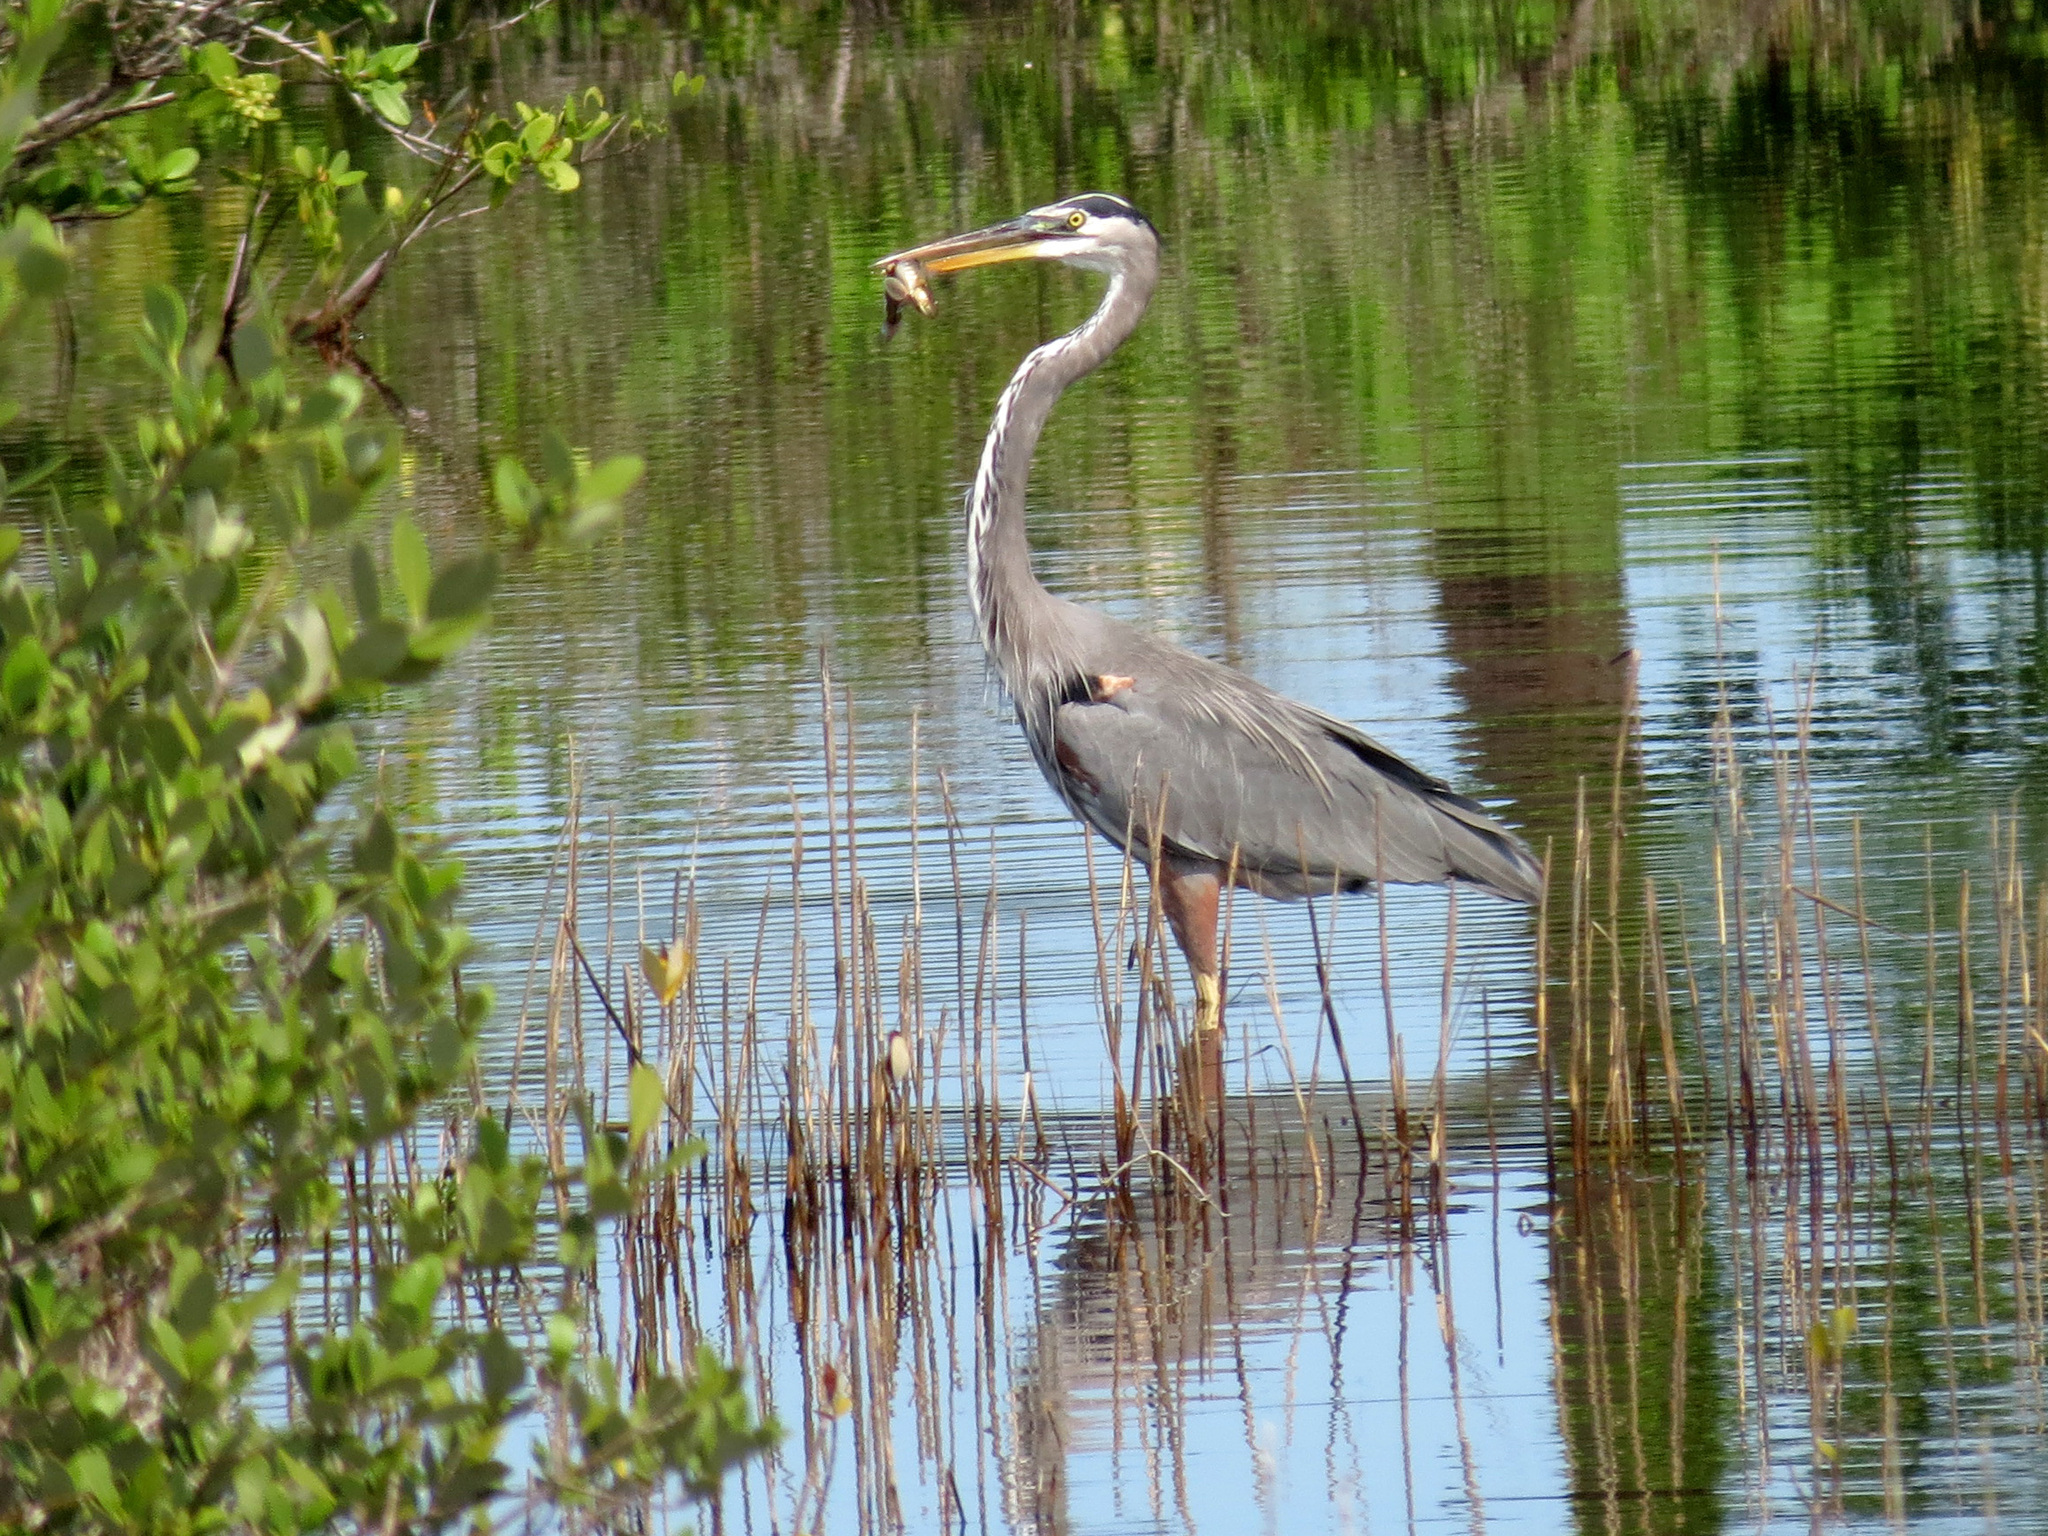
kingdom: Animalia
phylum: Chordata
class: Aves
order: Pelecaniformes
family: Ardeidae
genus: Ardea
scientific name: Ardea herodias
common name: Great blue heron
